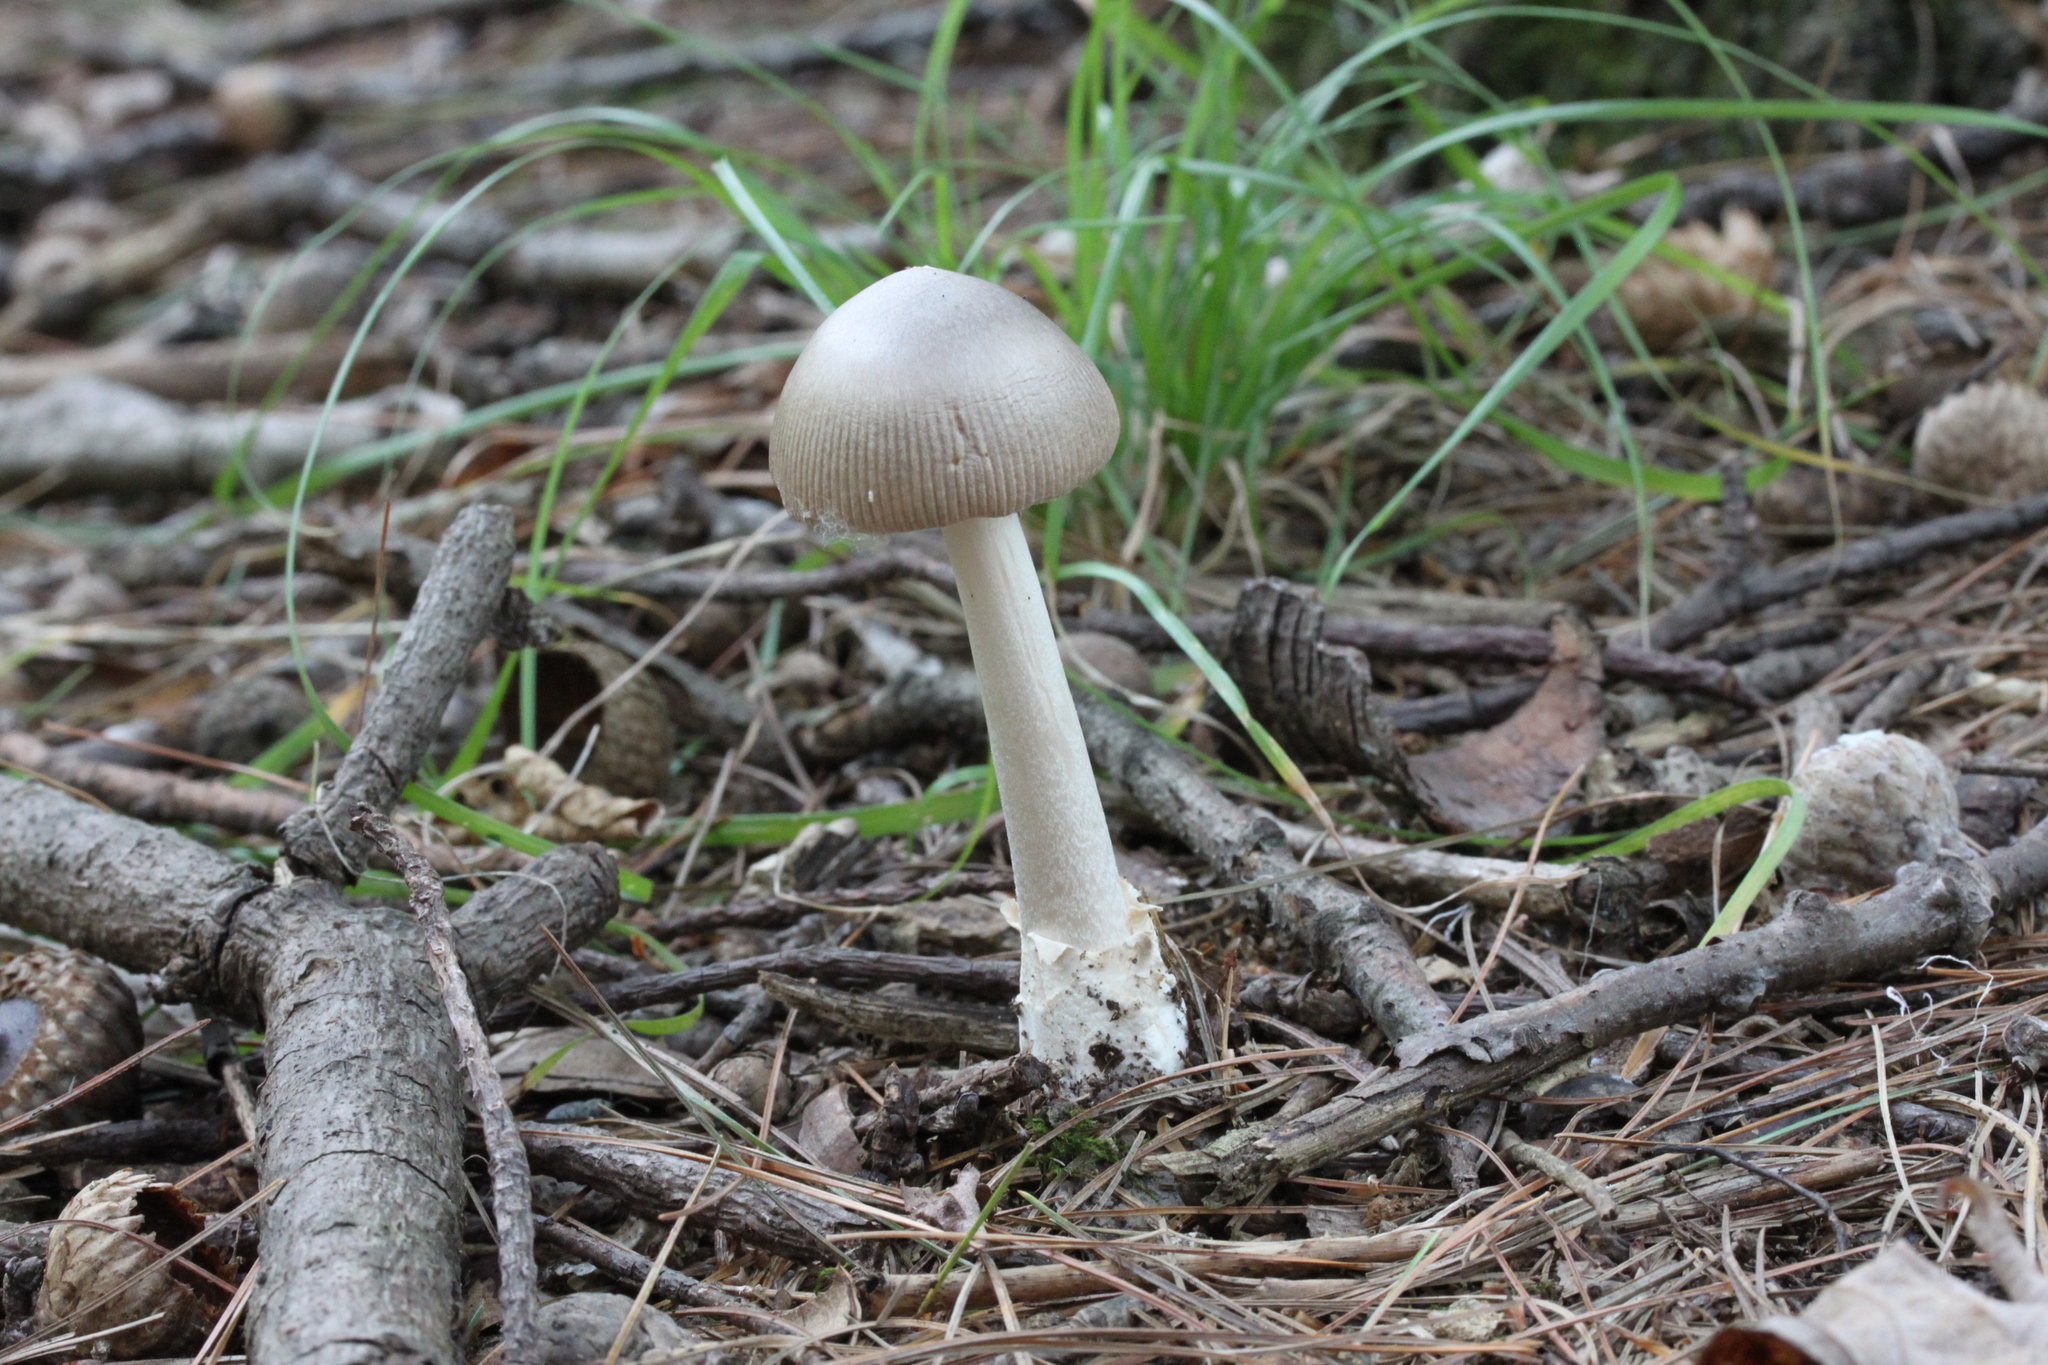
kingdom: Fungi
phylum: Basidiomycota
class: Agaricomycetes
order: Agaricales
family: Amanitaceae
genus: Amanita
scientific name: Amanita vaginata
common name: Grisette
